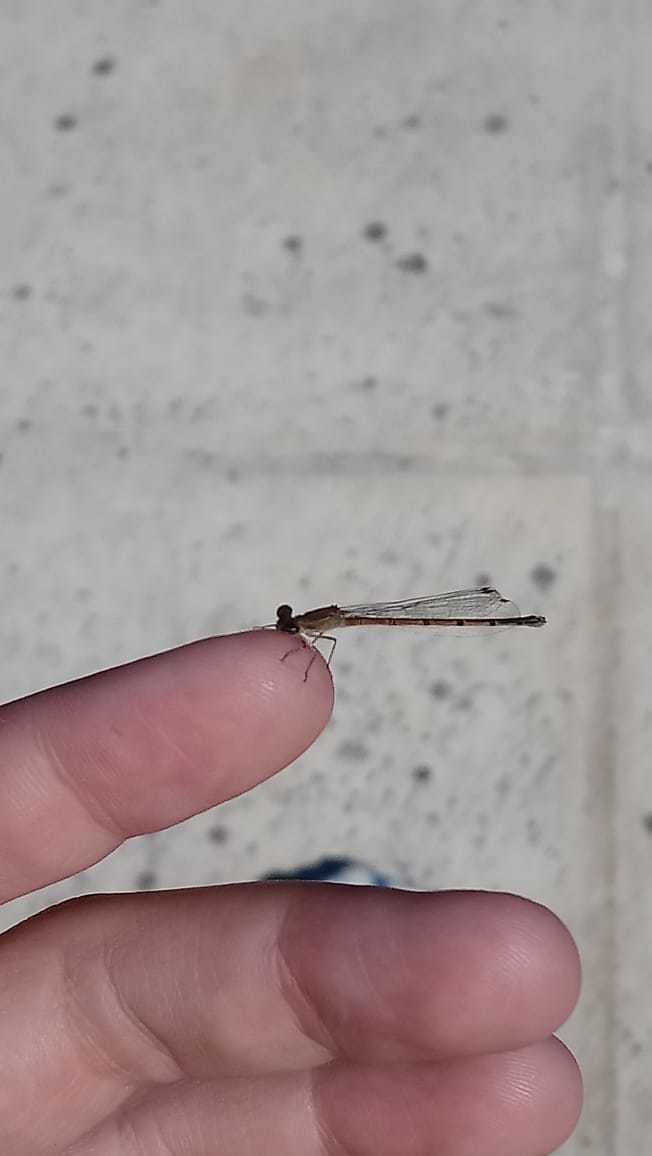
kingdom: Animalia
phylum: Arthropoda
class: Insecta
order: Odonata
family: Coenagrionidae
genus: Oxyagrion
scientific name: Oxyagrion terminale
